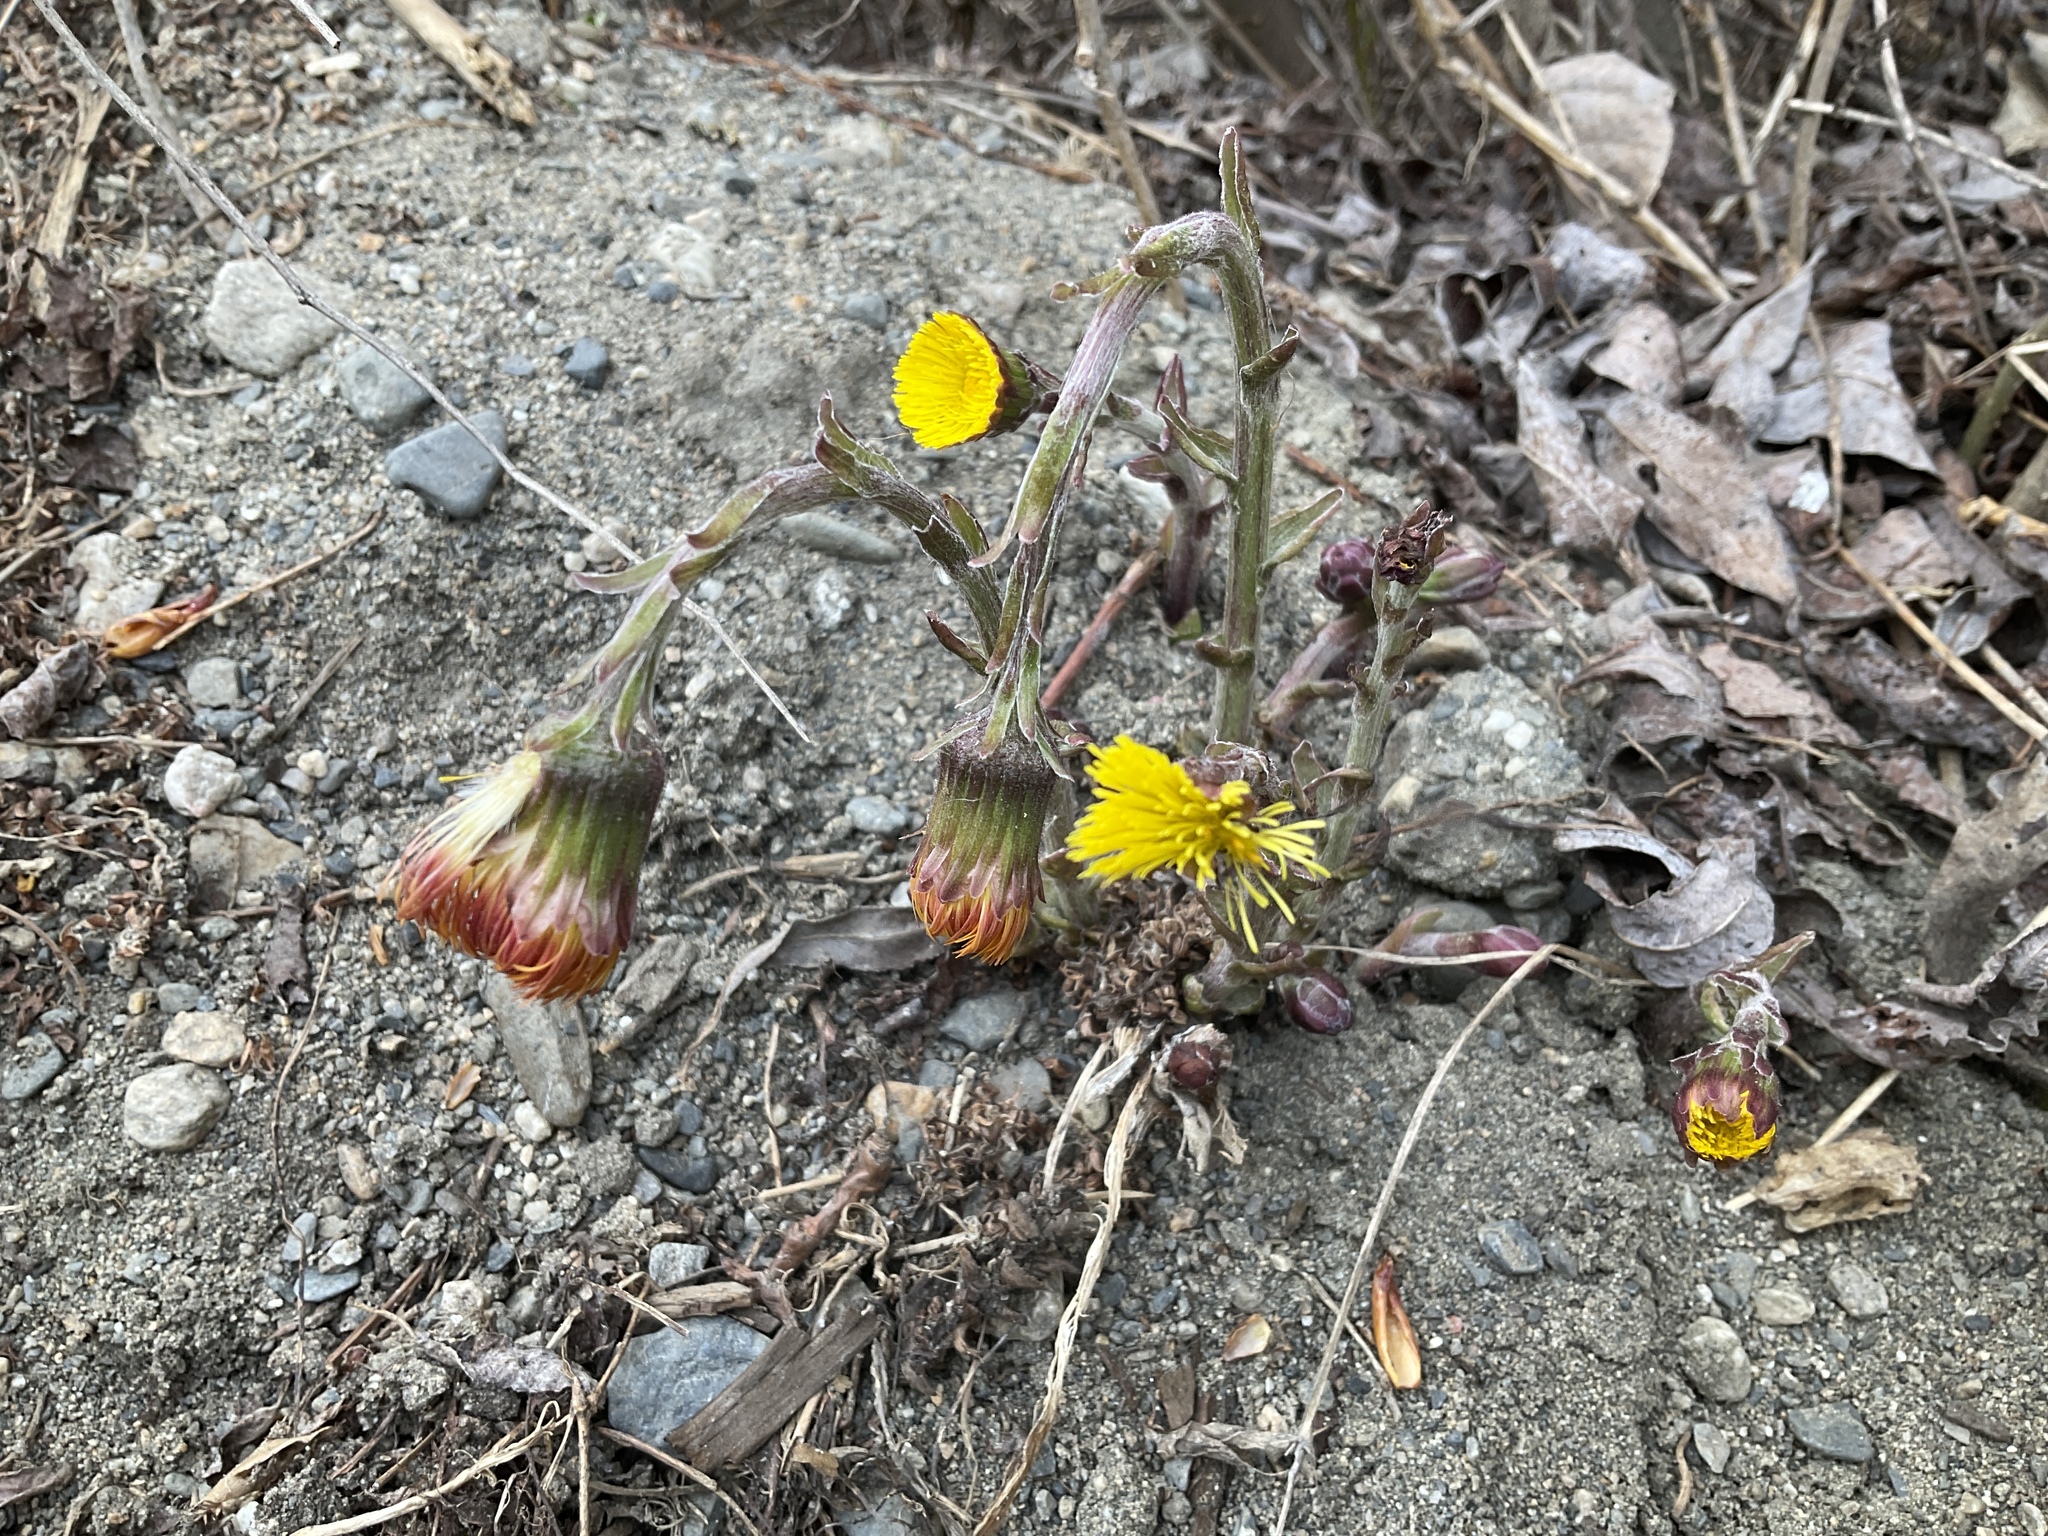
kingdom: Plantae
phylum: Tracheophyta
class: Magnoliopsida
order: Asterales
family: Asteraceae
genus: Tussilago
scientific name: Tussilago farfara
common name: Coltsfoot
